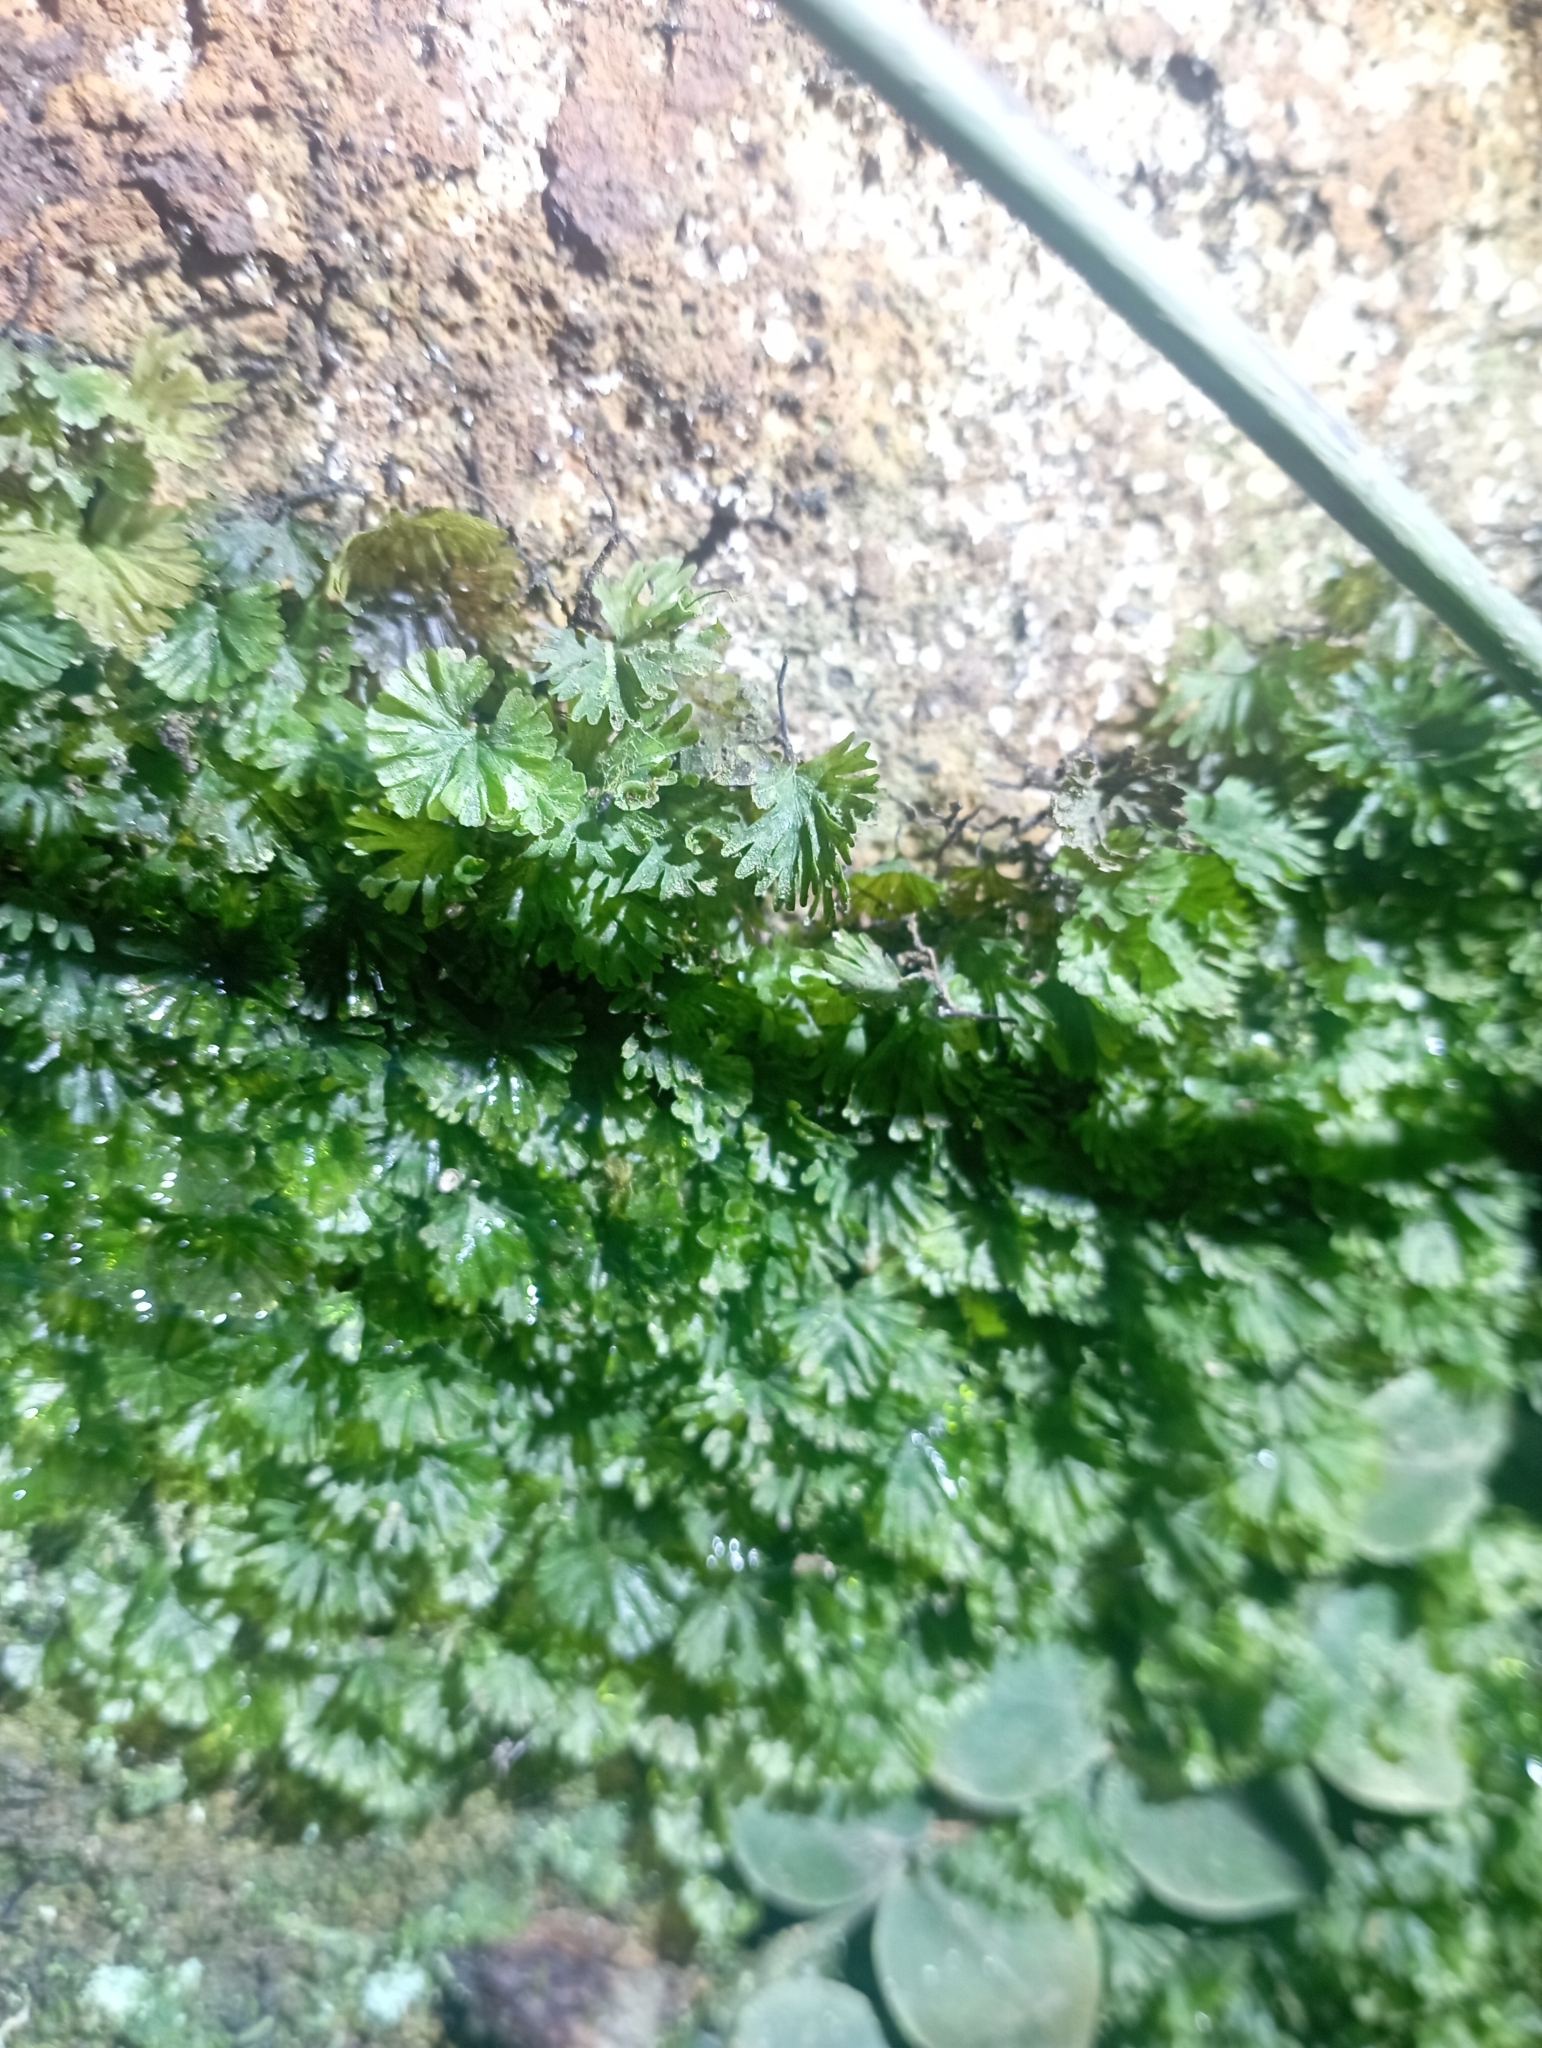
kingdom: Plantae
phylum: Tracheophyta
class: Polypodiopsida
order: Hymenophyllales
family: Hymenophyllaceae
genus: Crepidomanes
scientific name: Crepidomanes parvulum
